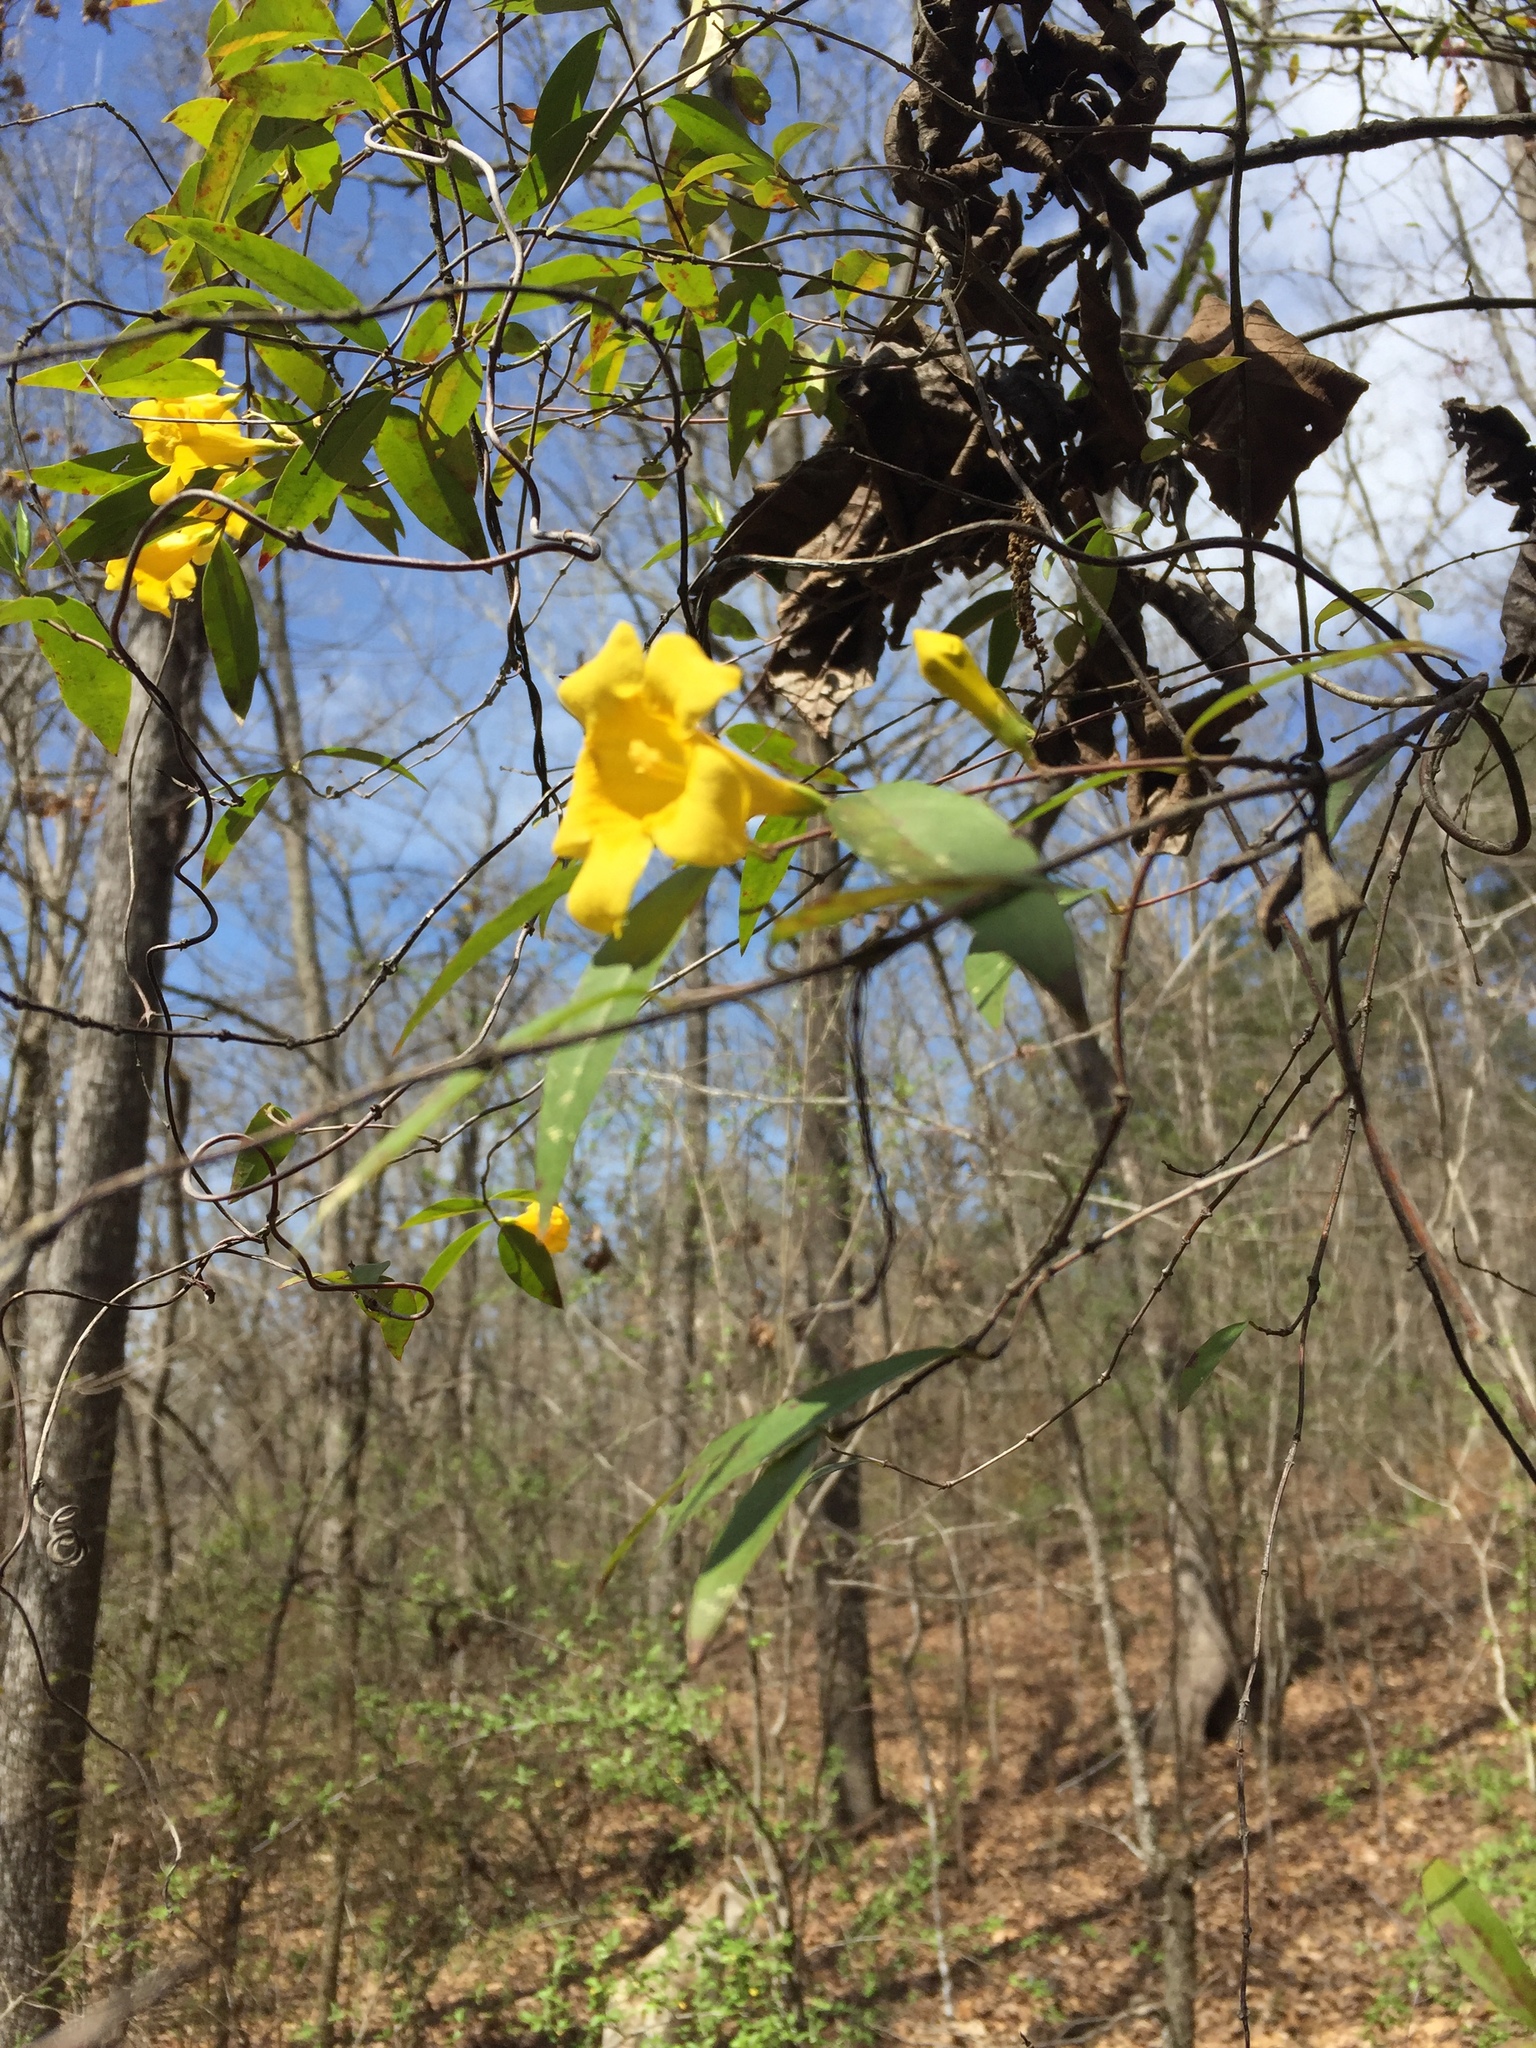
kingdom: Plantae
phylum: Tracheophyta
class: Magnoliopsida
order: Gentianales
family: Gelsemiaceae
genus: Gelsemium
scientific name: Gelsemium sempervirens
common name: Carolina-jasmine
